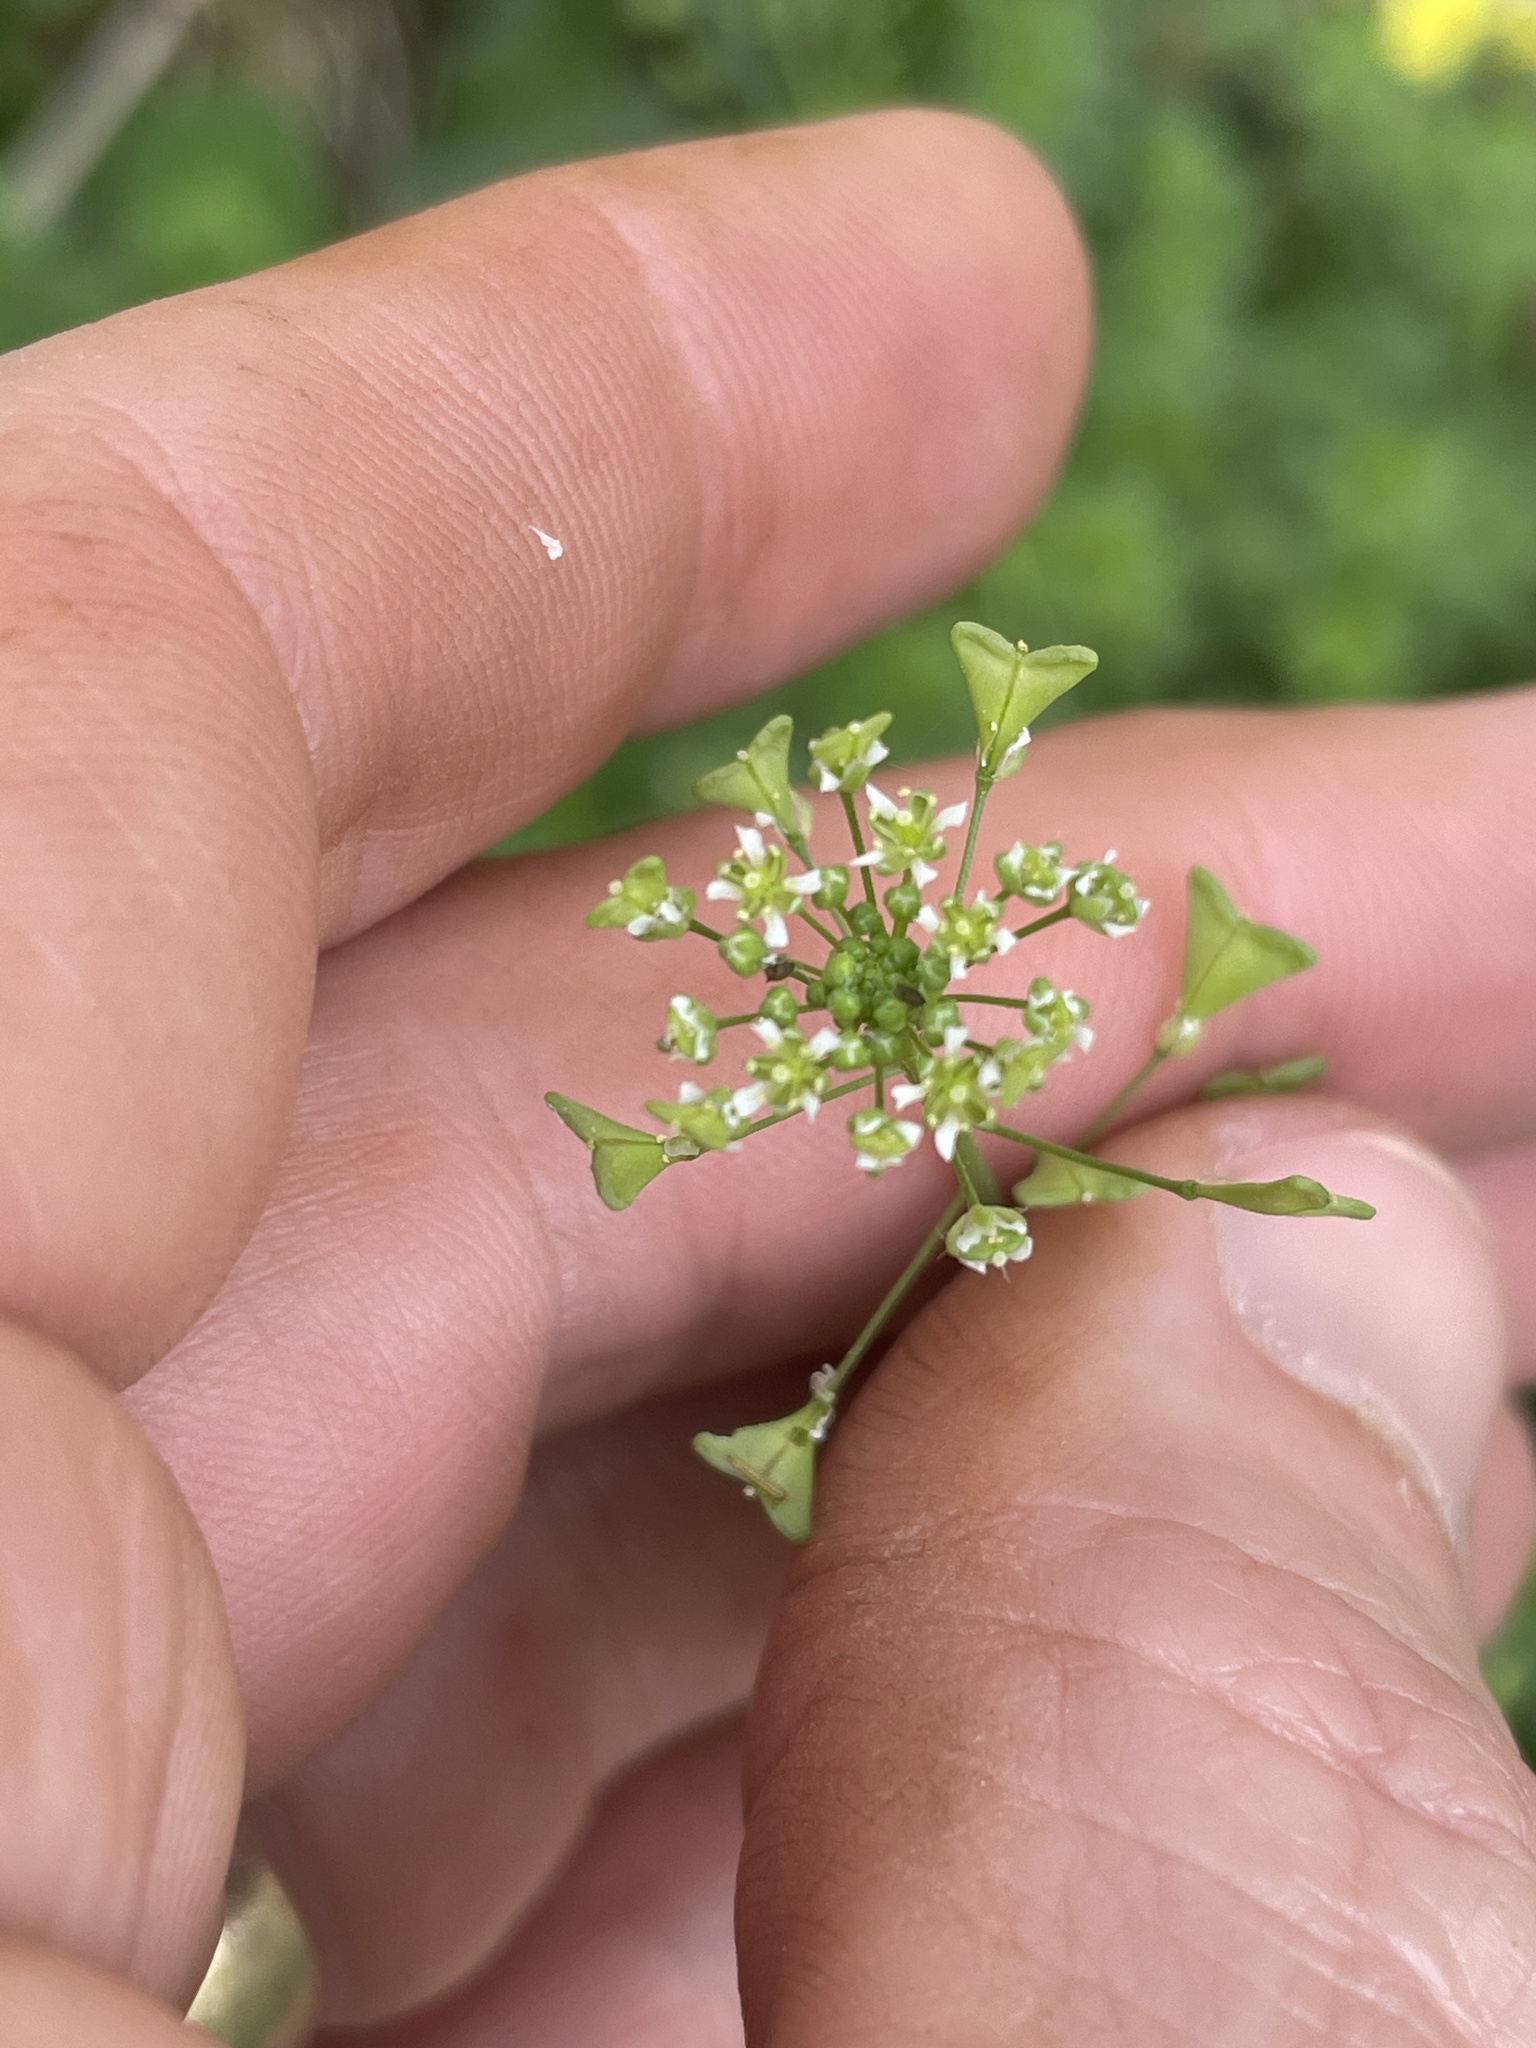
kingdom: Plantae
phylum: Tracheophyta
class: Magnoliopsida
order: Brassicales
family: Brassicaceae
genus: Capsella
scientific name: Capsella bursa-pastoris
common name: Shepherd's purse
